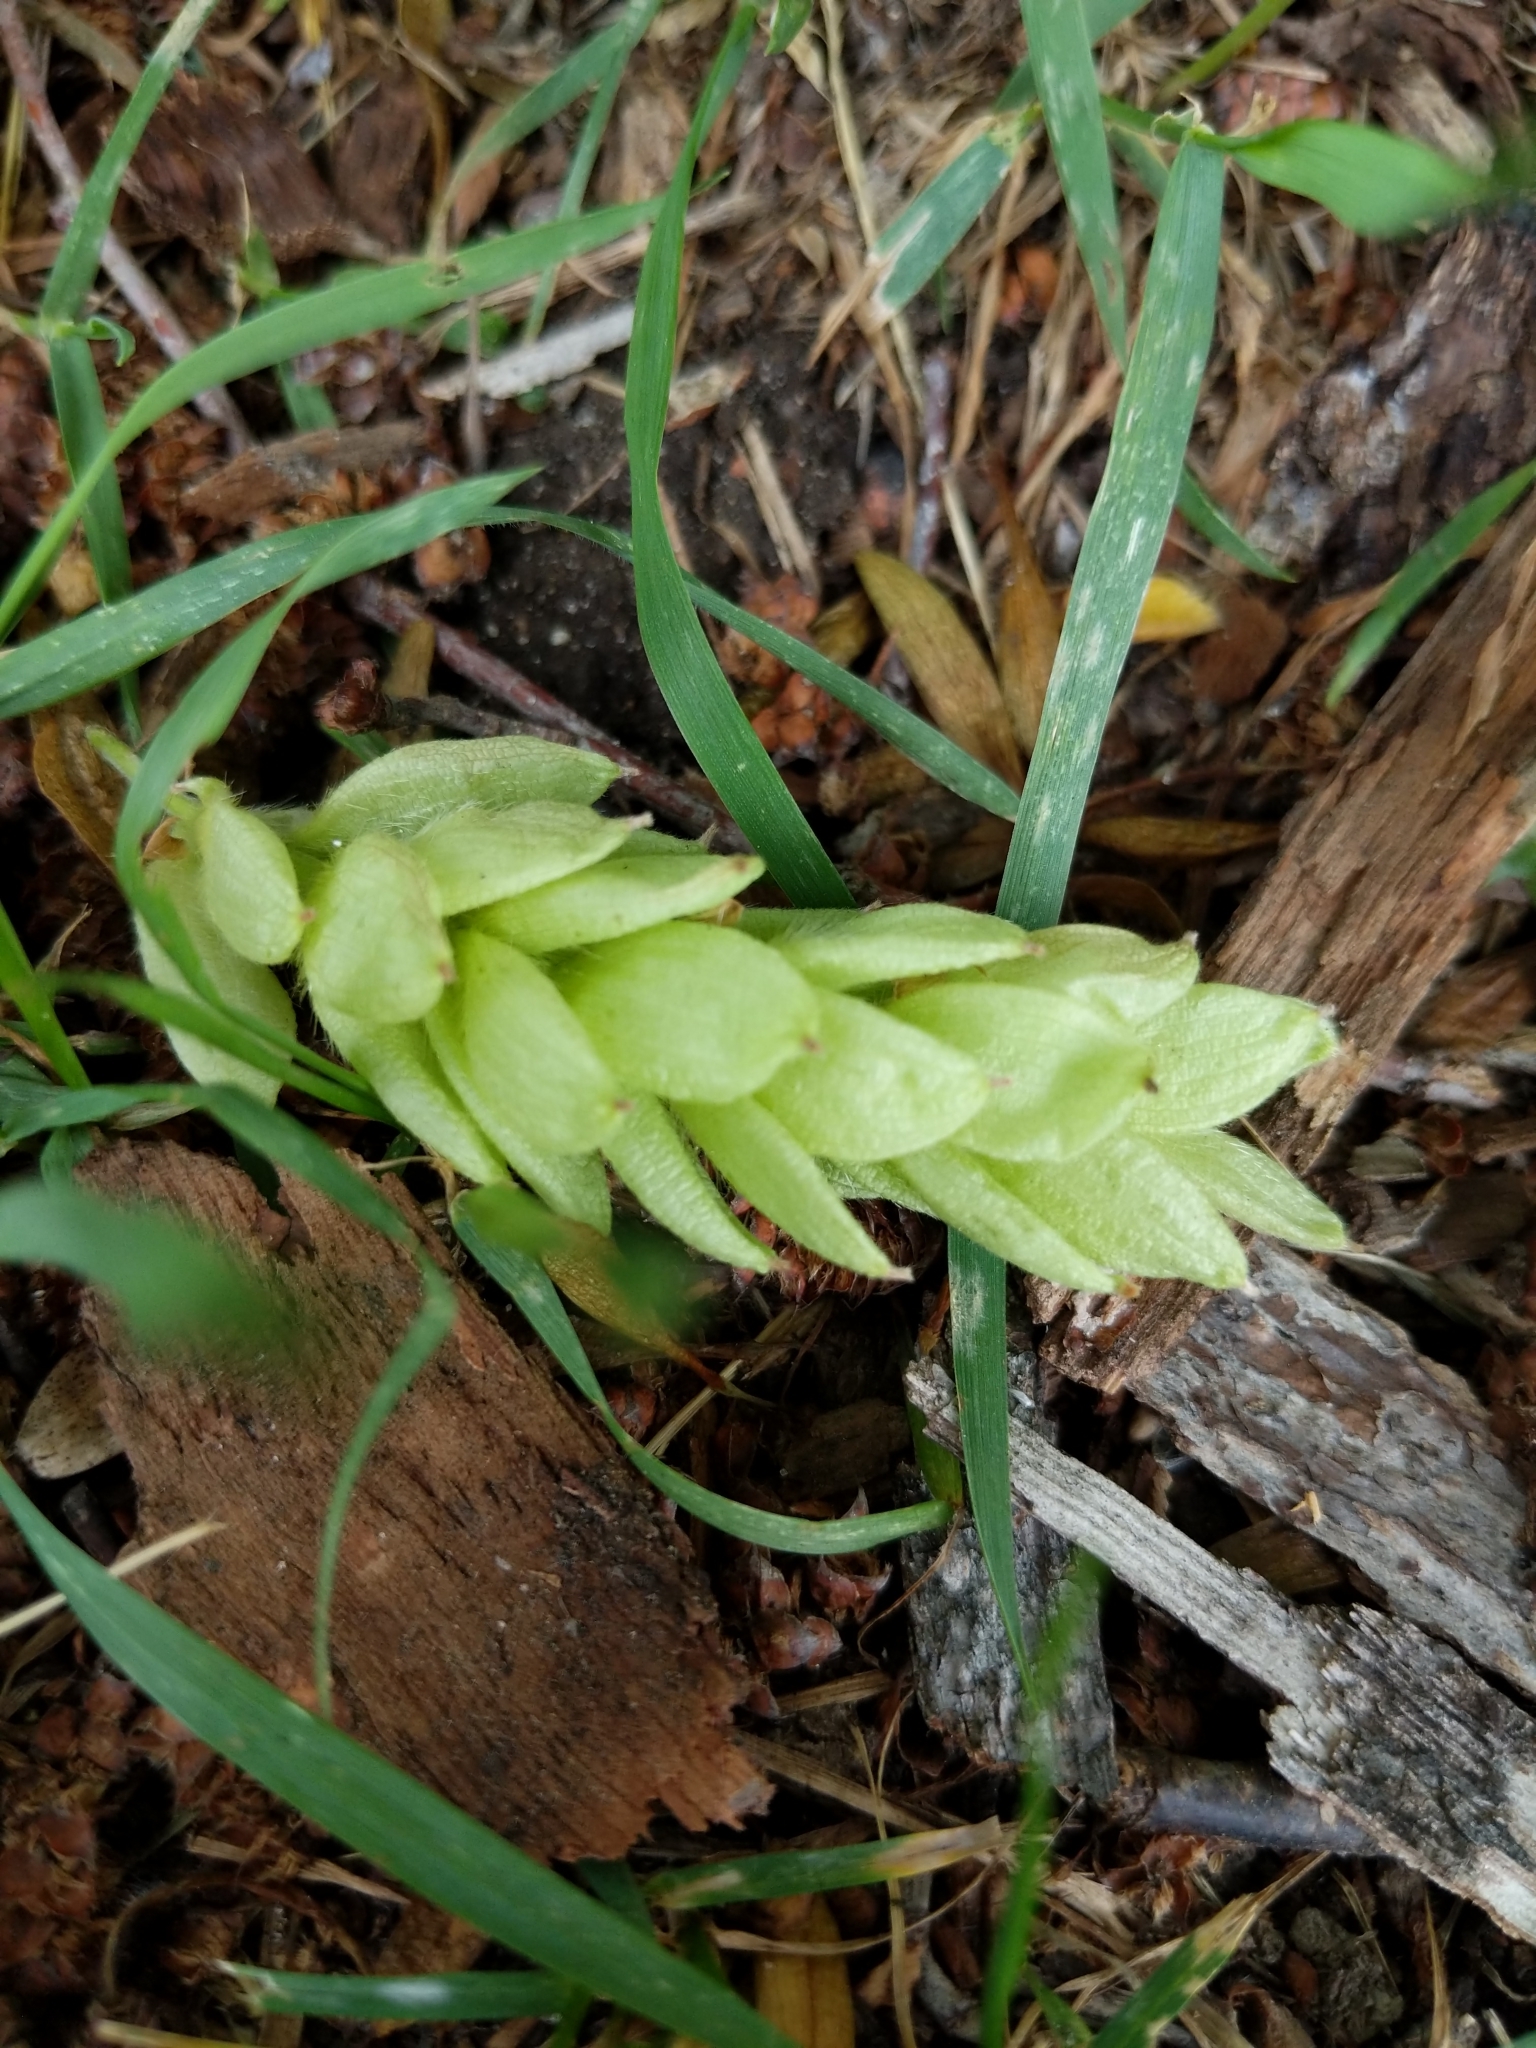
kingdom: Plantae
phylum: Tracheophyta
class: Magnoliopsida
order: Fagales
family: Betulaceae
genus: Ostrya
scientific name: Ostrya virginiana
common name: Ironwood
